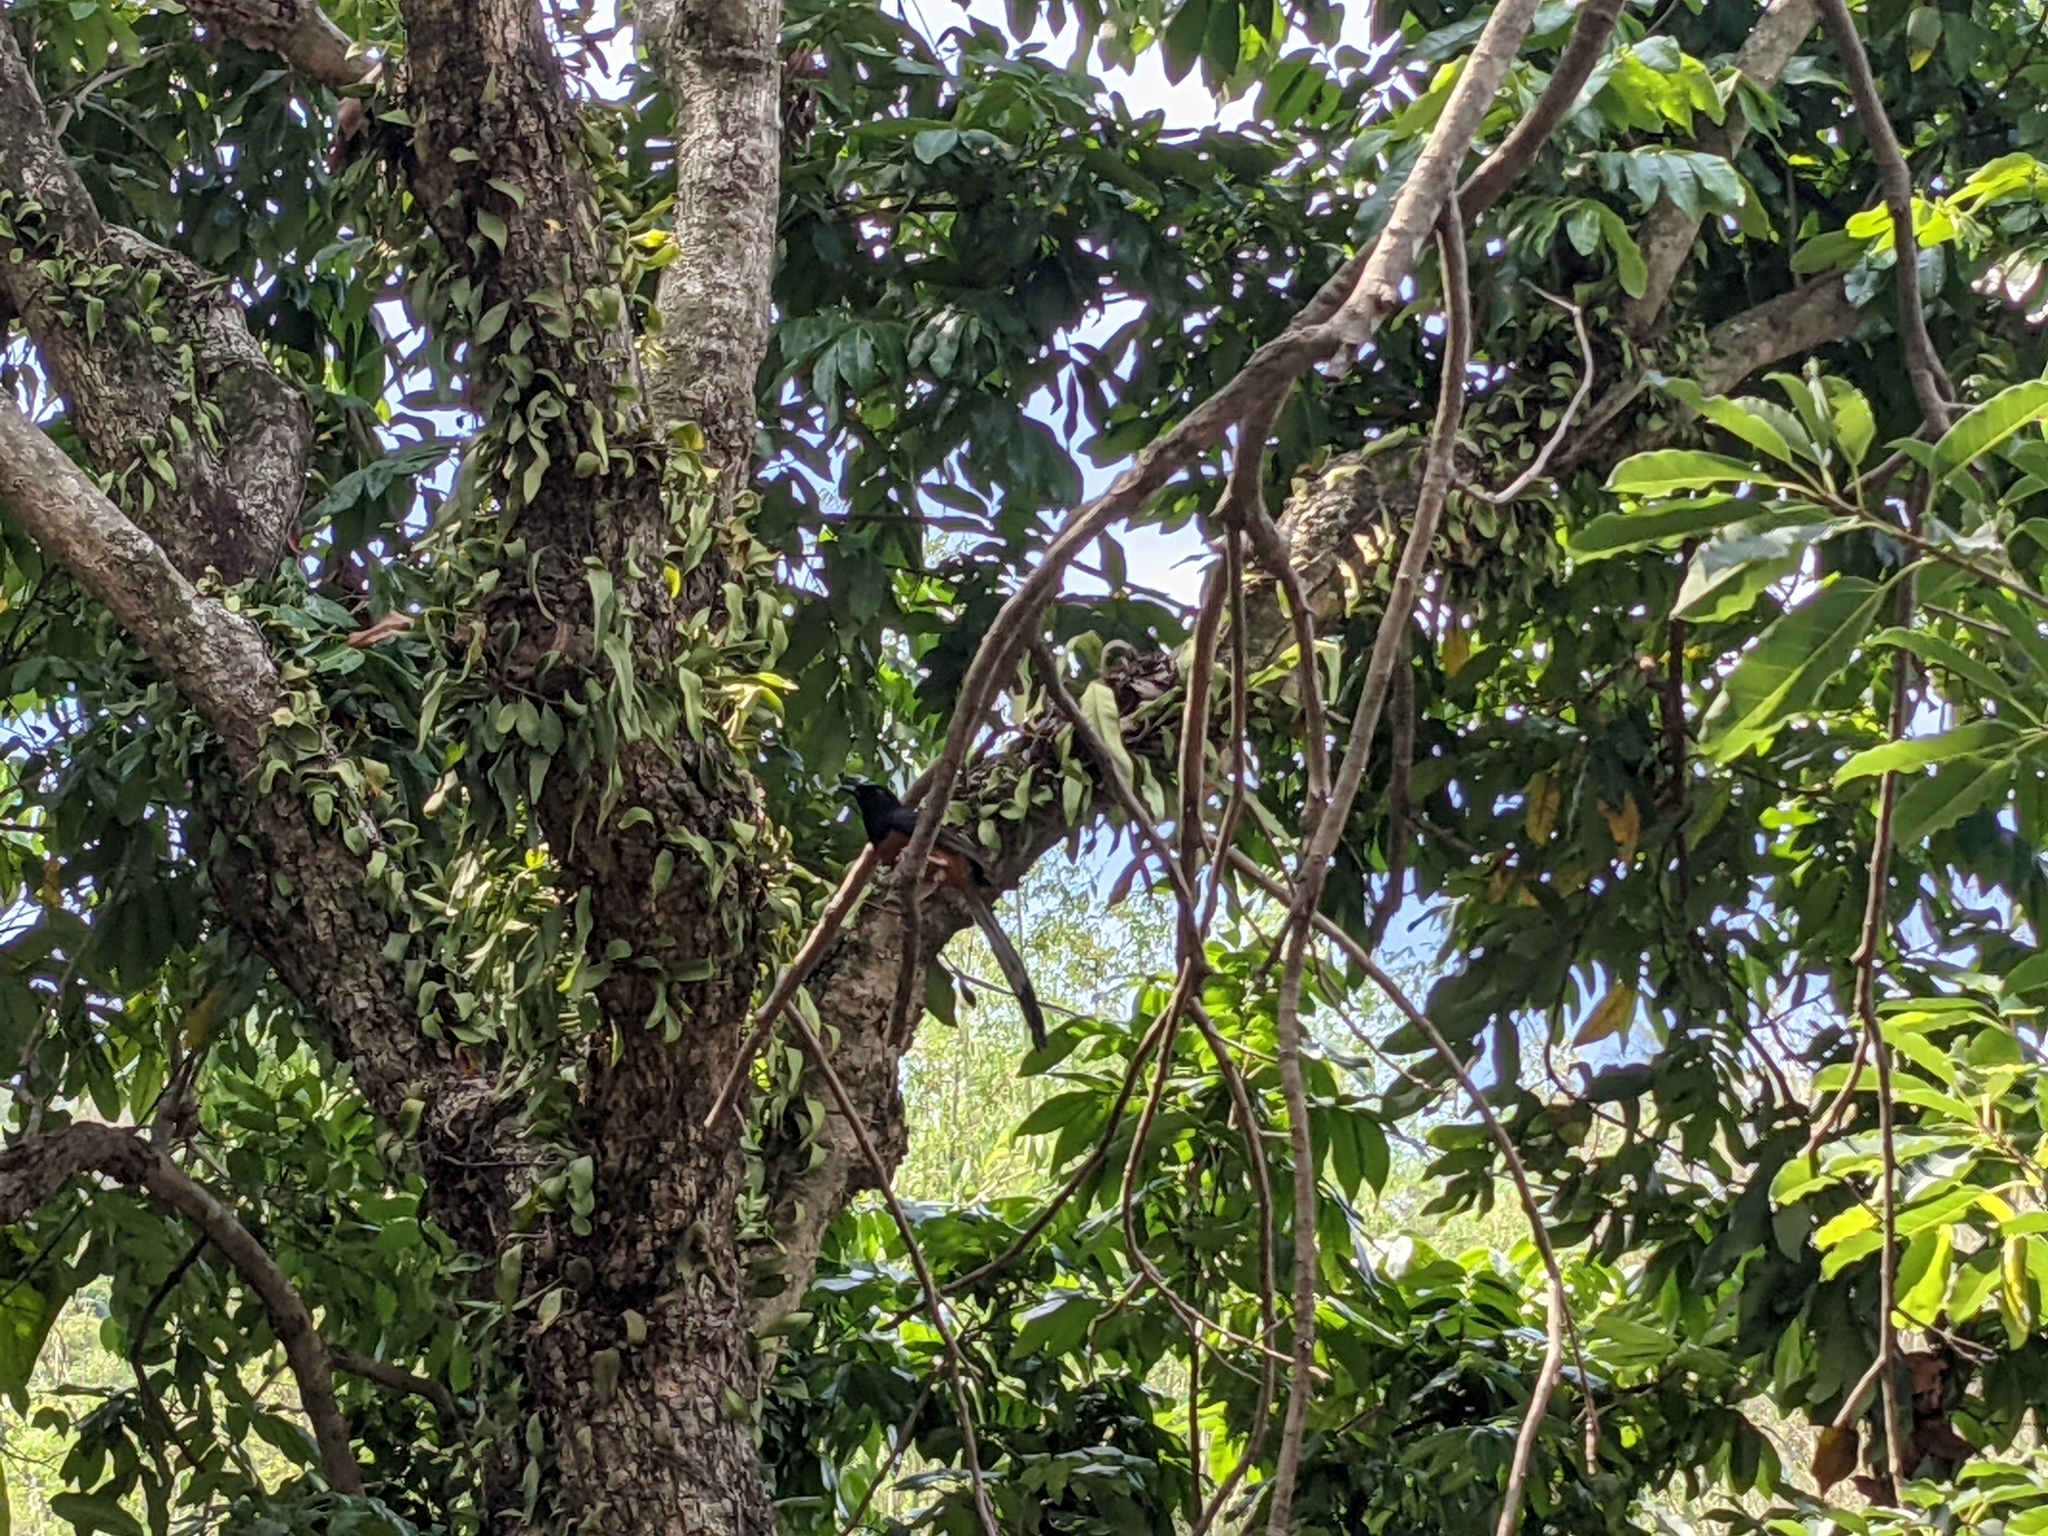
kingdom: Animalia
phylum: Chordata
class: Aves
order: Passeriformes
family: Muscicapidae
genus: Copsychus
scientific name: Copsychus malabaricus
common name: White-rumped shama
